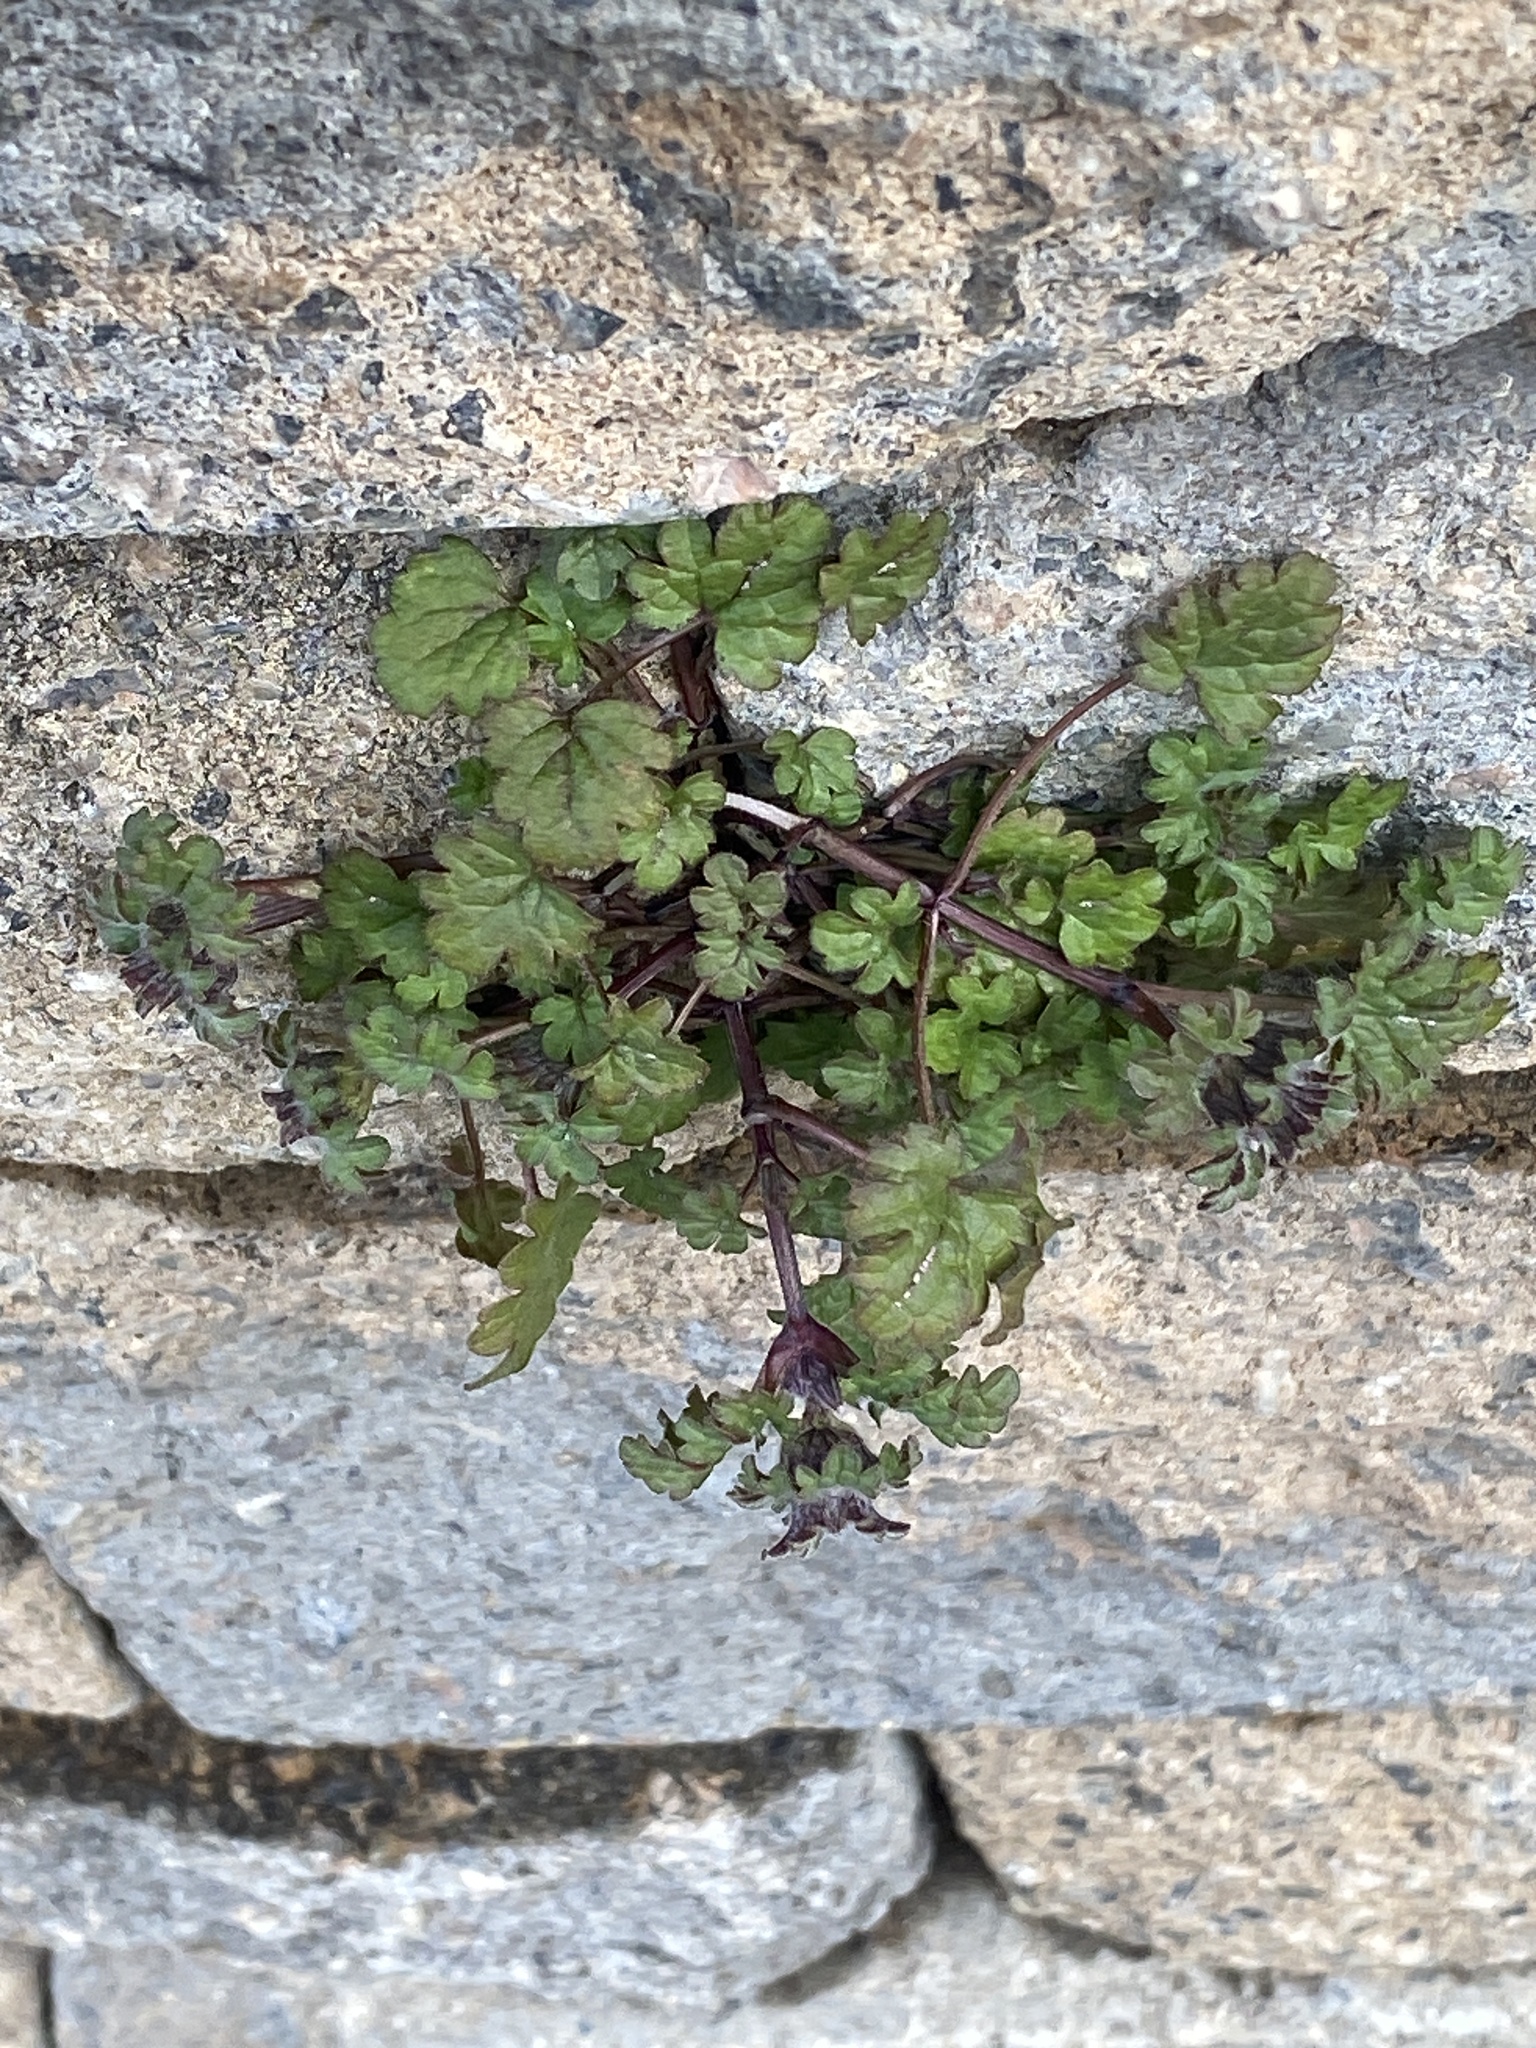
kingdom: Plantae
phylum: Tracheophyta
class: Magnoliopsida
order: Lamiales
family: Lamiaceae
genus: Lamium
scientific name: Lamium amplexicaule
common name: Henbit dead-nettle
